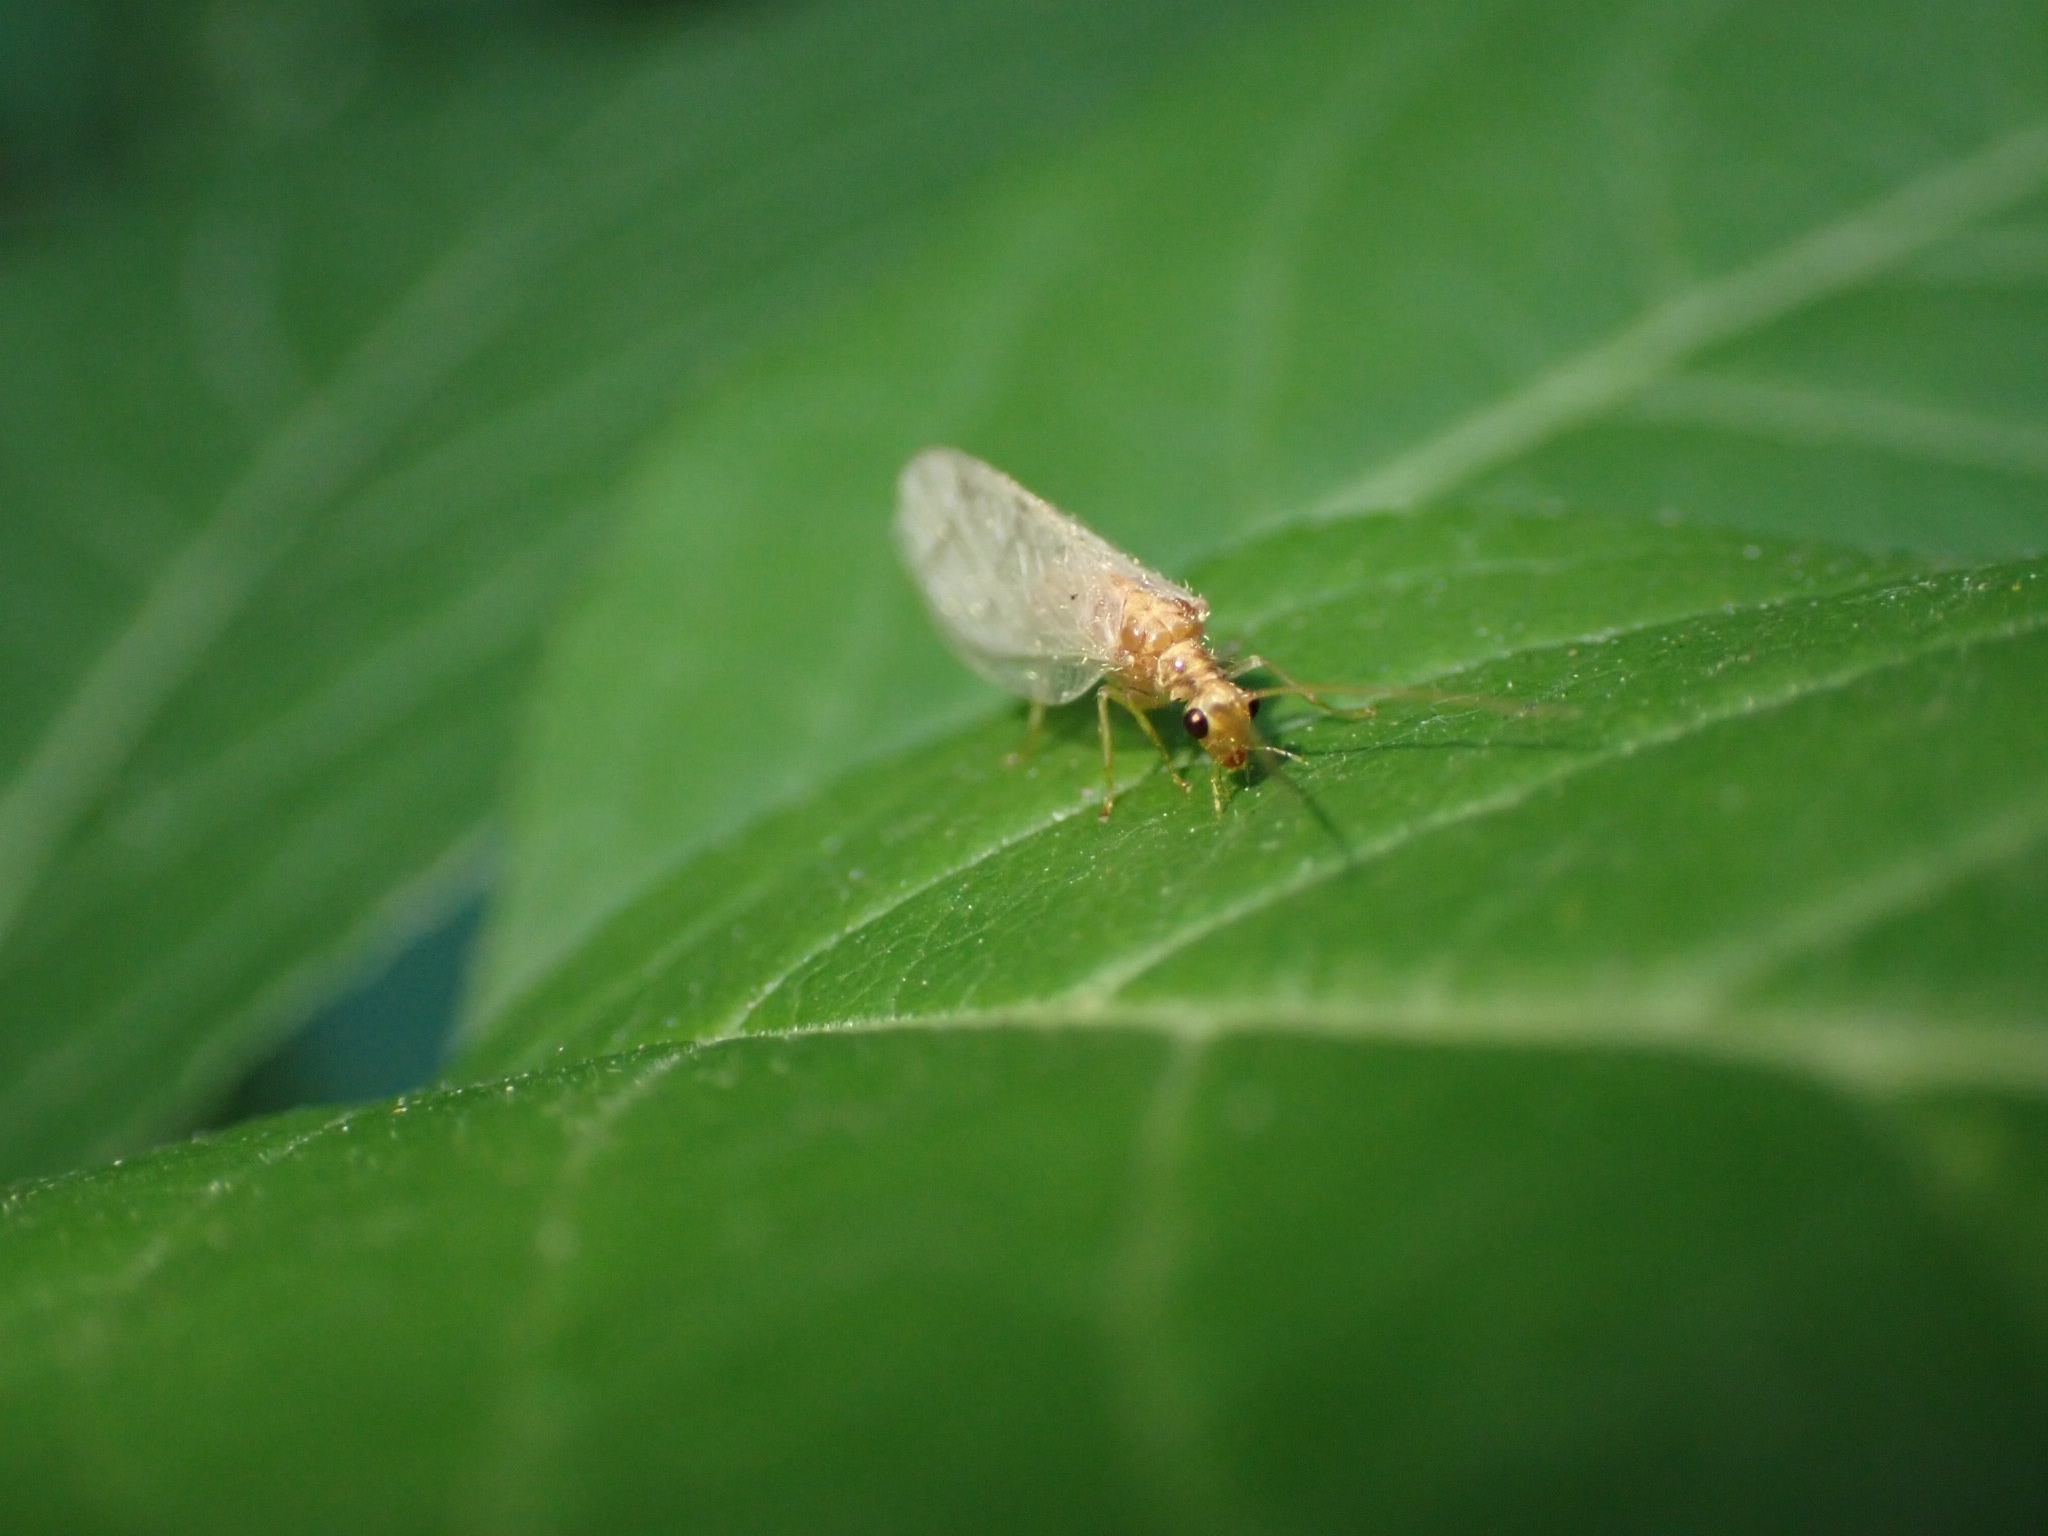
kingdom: Animalia
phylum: Arthropoda
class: Insecta
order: Neuroptera
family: Hemerobiidae
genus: Micromus
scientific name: Micromus paganus
